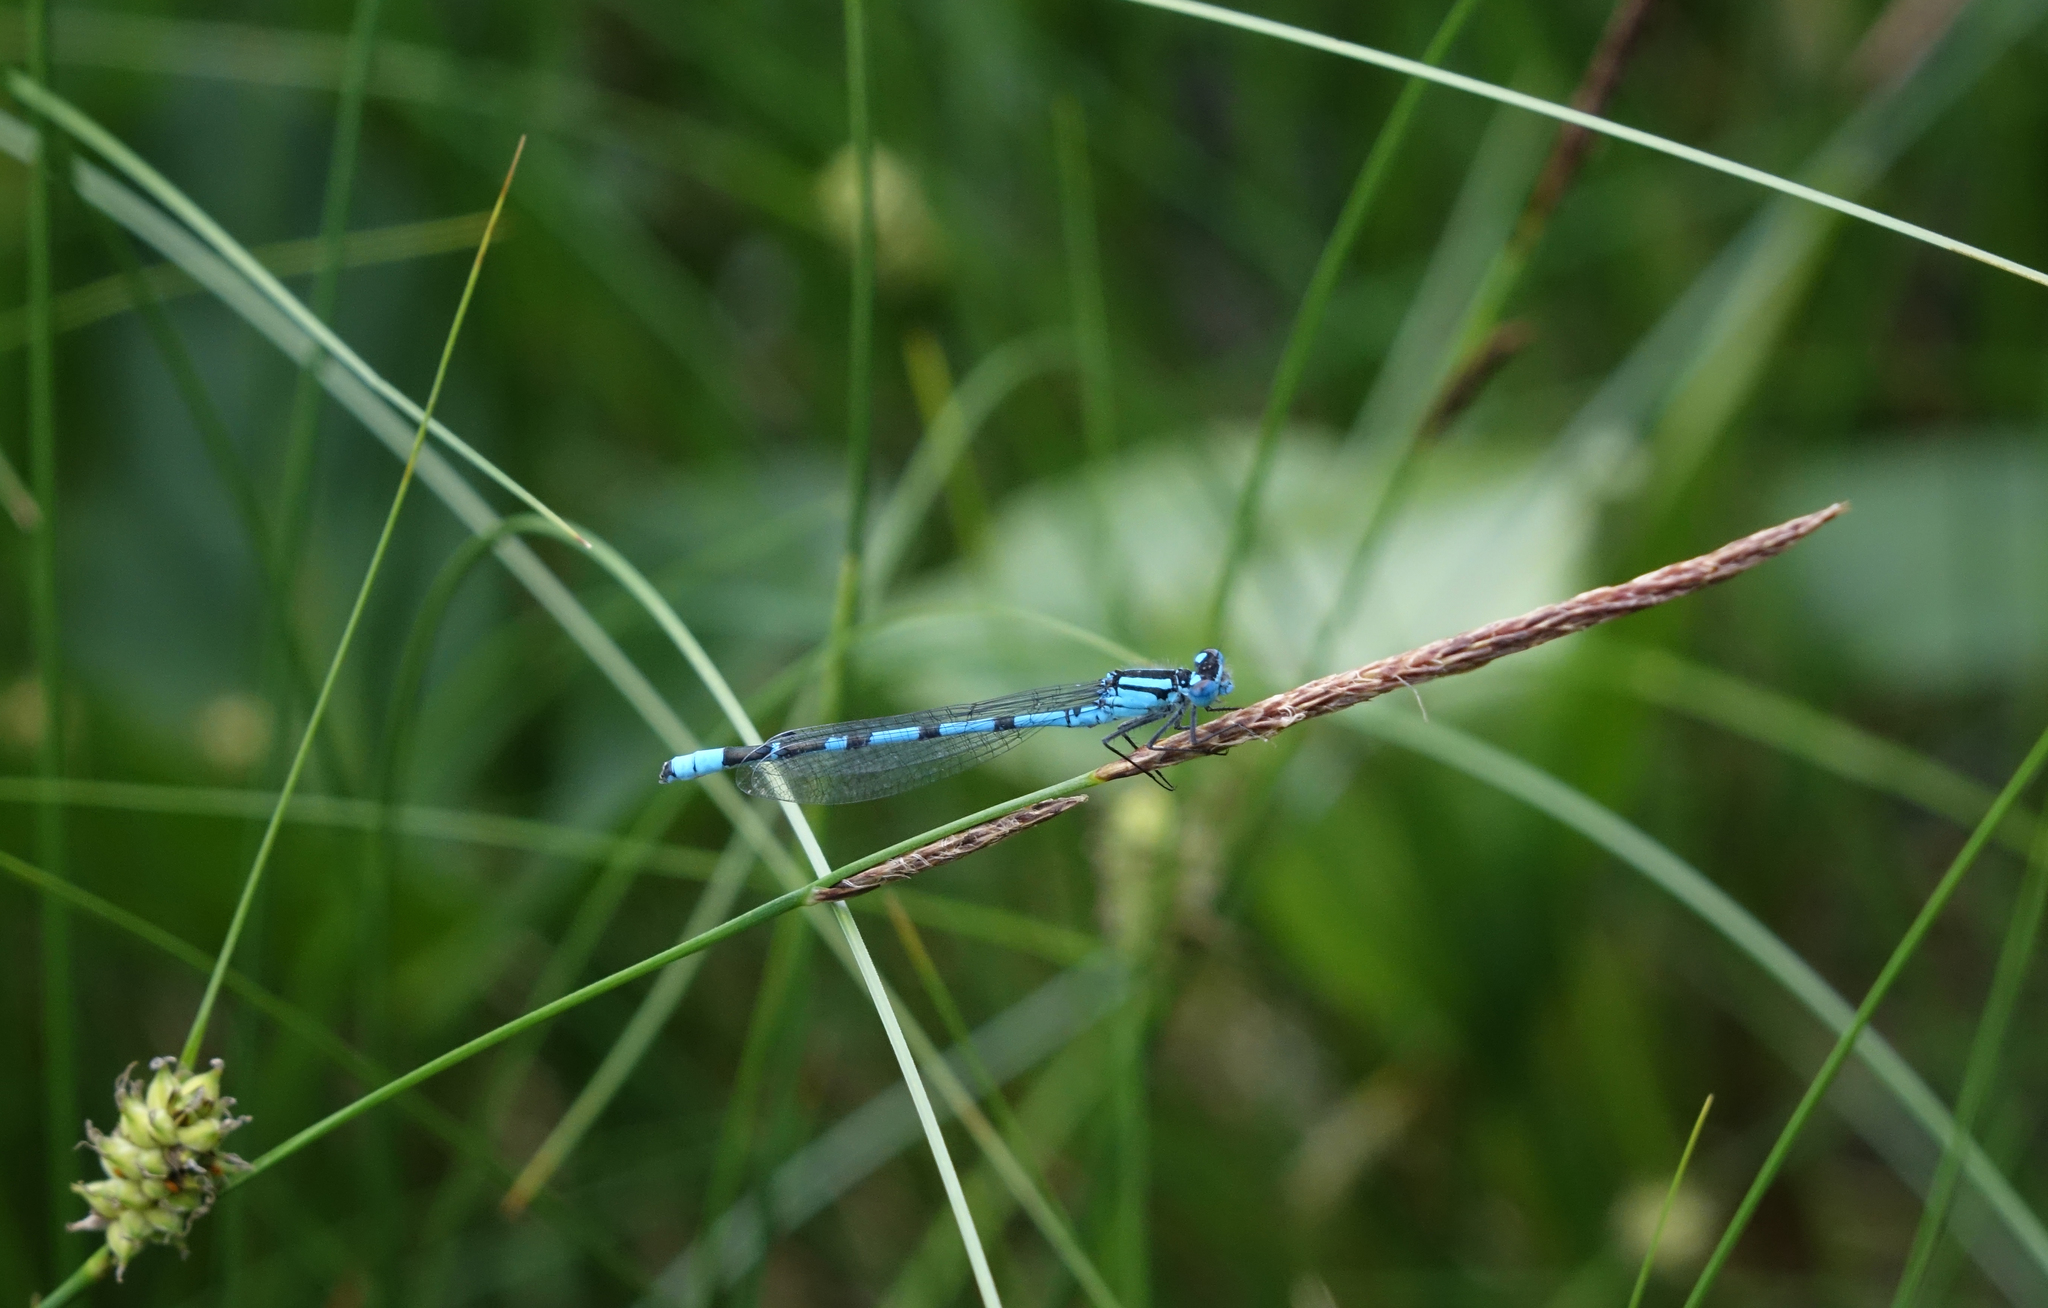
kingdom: Plantae
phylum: Tracheophyta
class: Liliopsida
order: Poales
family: Cyperaceae
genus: Carex
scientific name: Carex lasiocarpa
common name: Slender sedge
